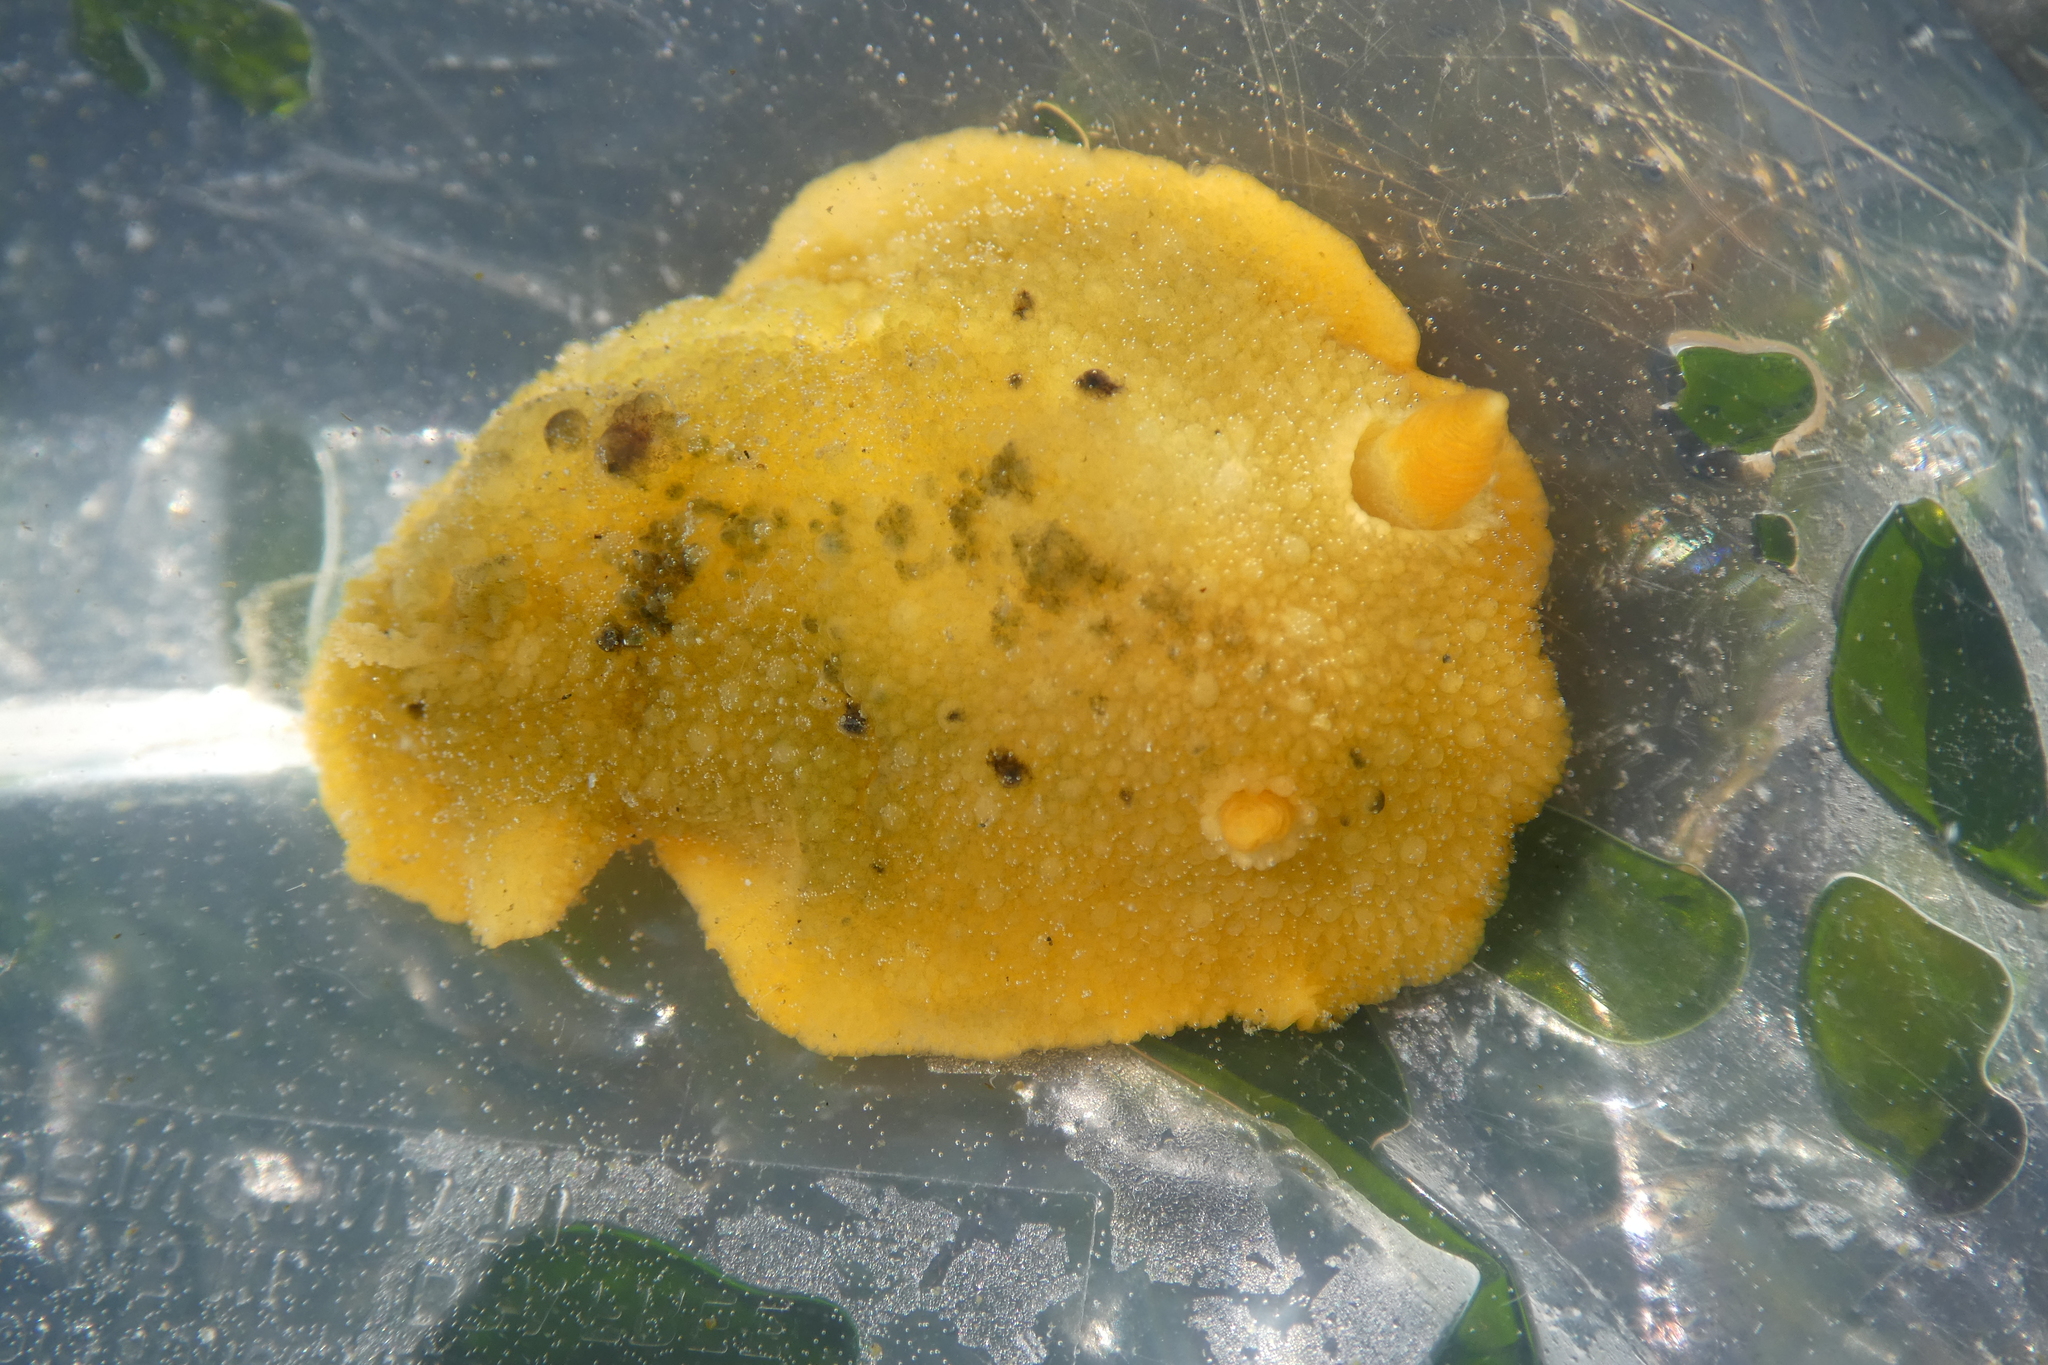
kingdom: Animalia
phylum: Mollusca
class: Gastropoda
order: Nudibranchia
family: Dorididae
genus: Doris
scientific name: Doris montereyensis
